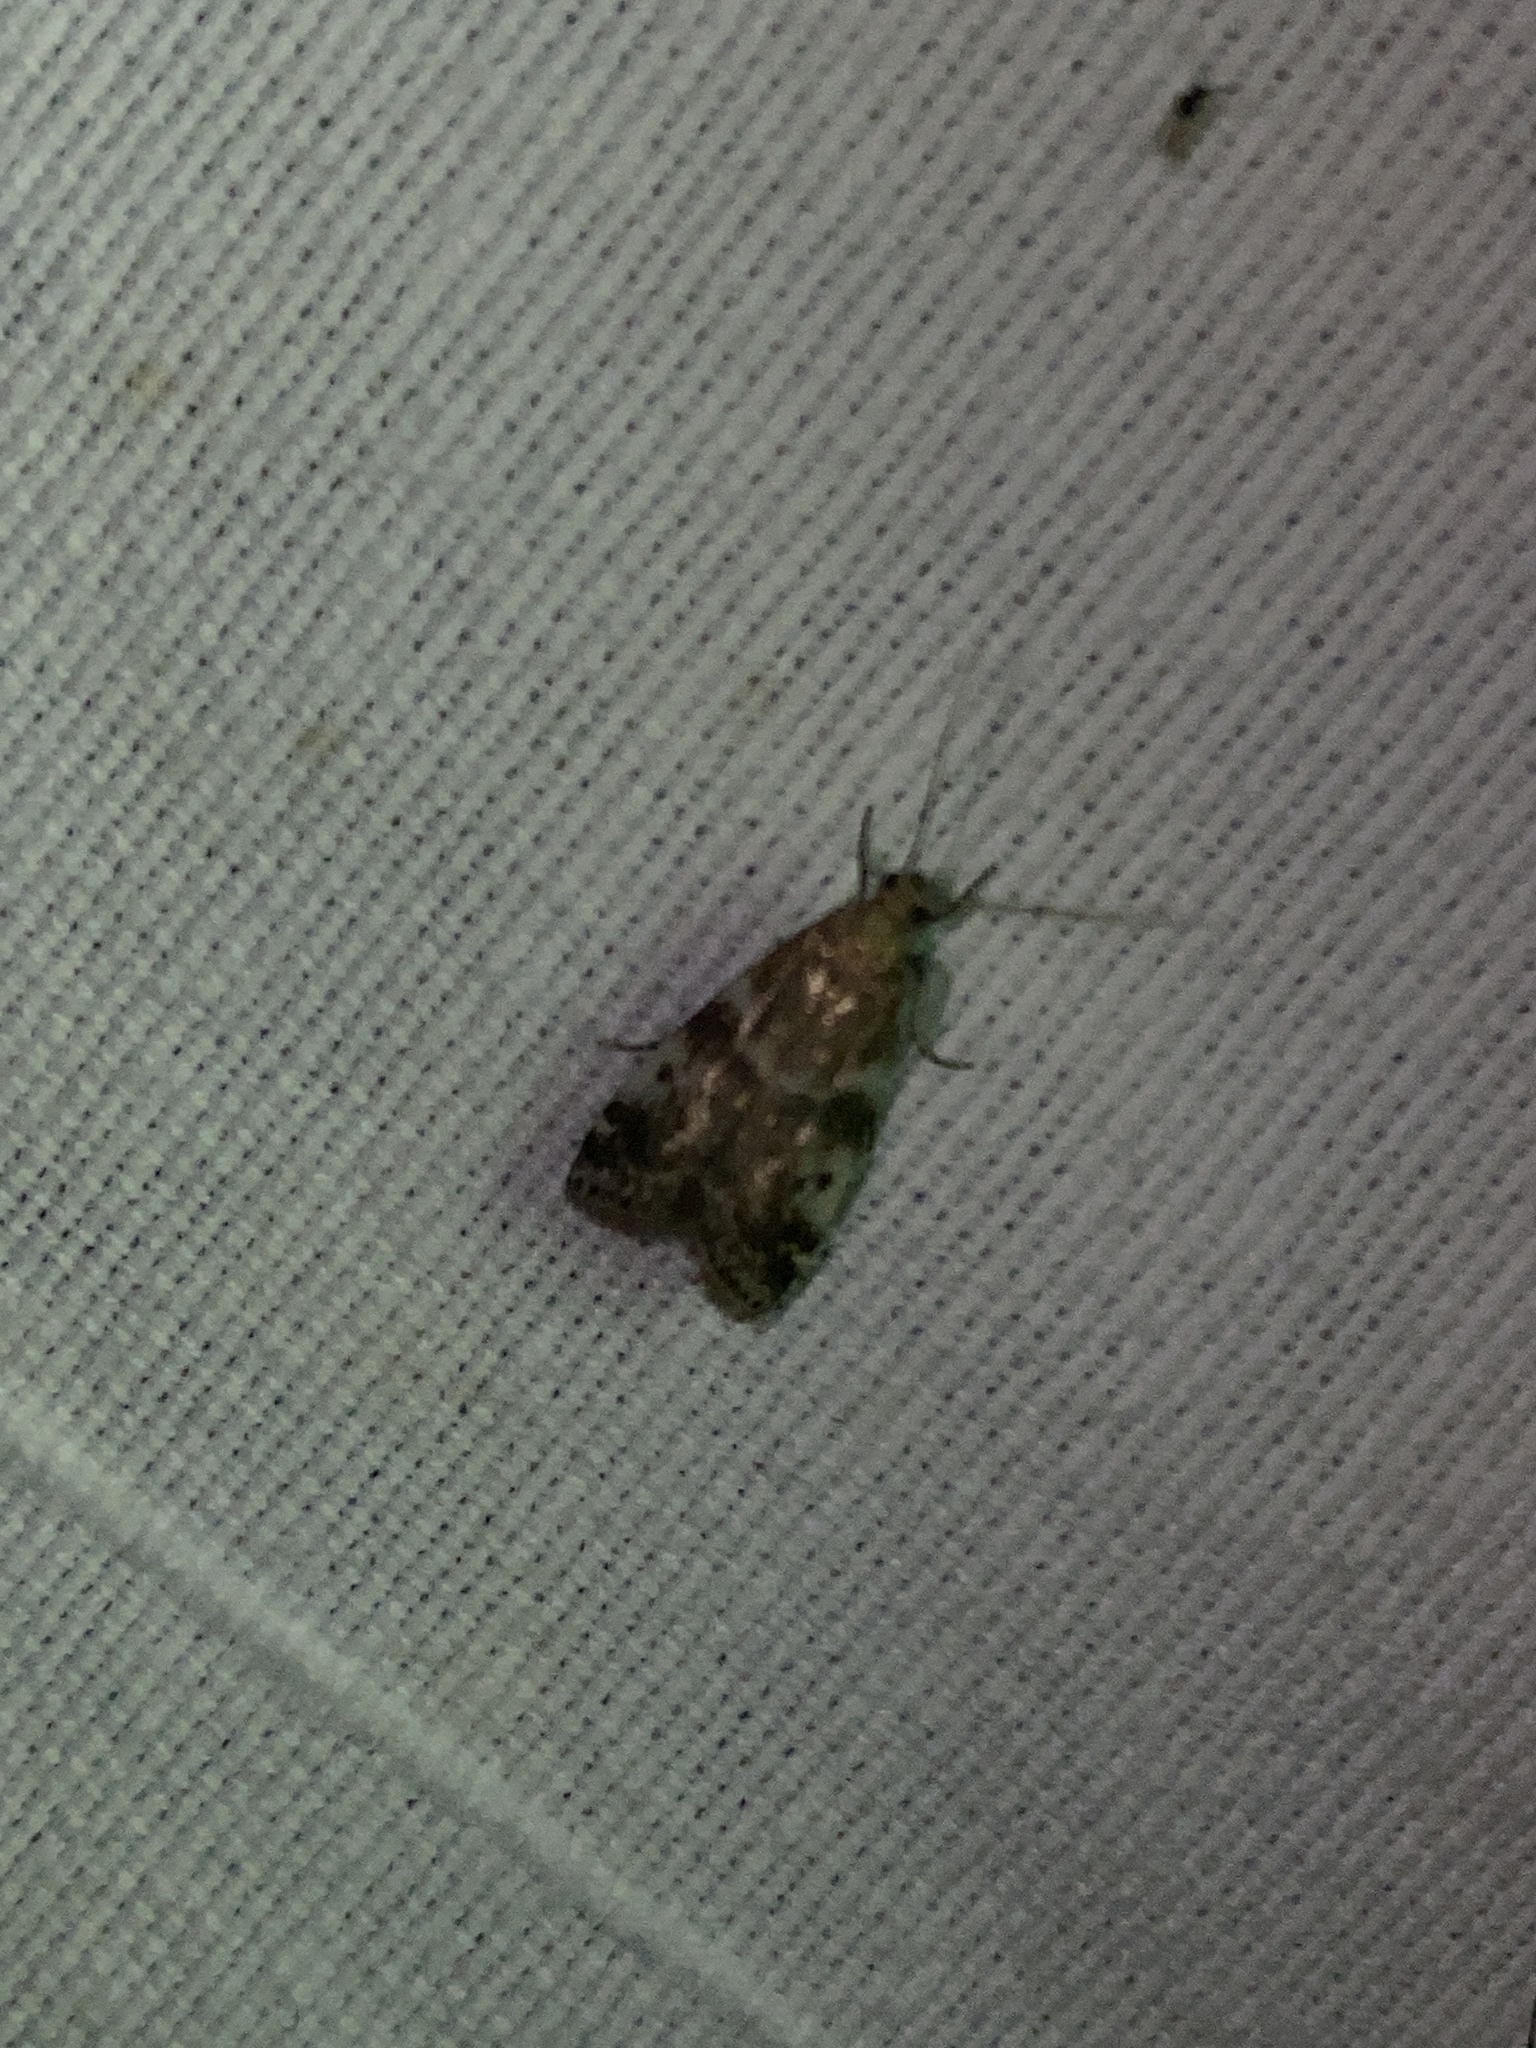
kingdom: Animalia
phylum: Arthropoda
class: Insecta
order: Lepidoptera
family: Pyralidae
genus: Assara
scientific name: Assara terebrella
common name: Dark spruce knot-horn
